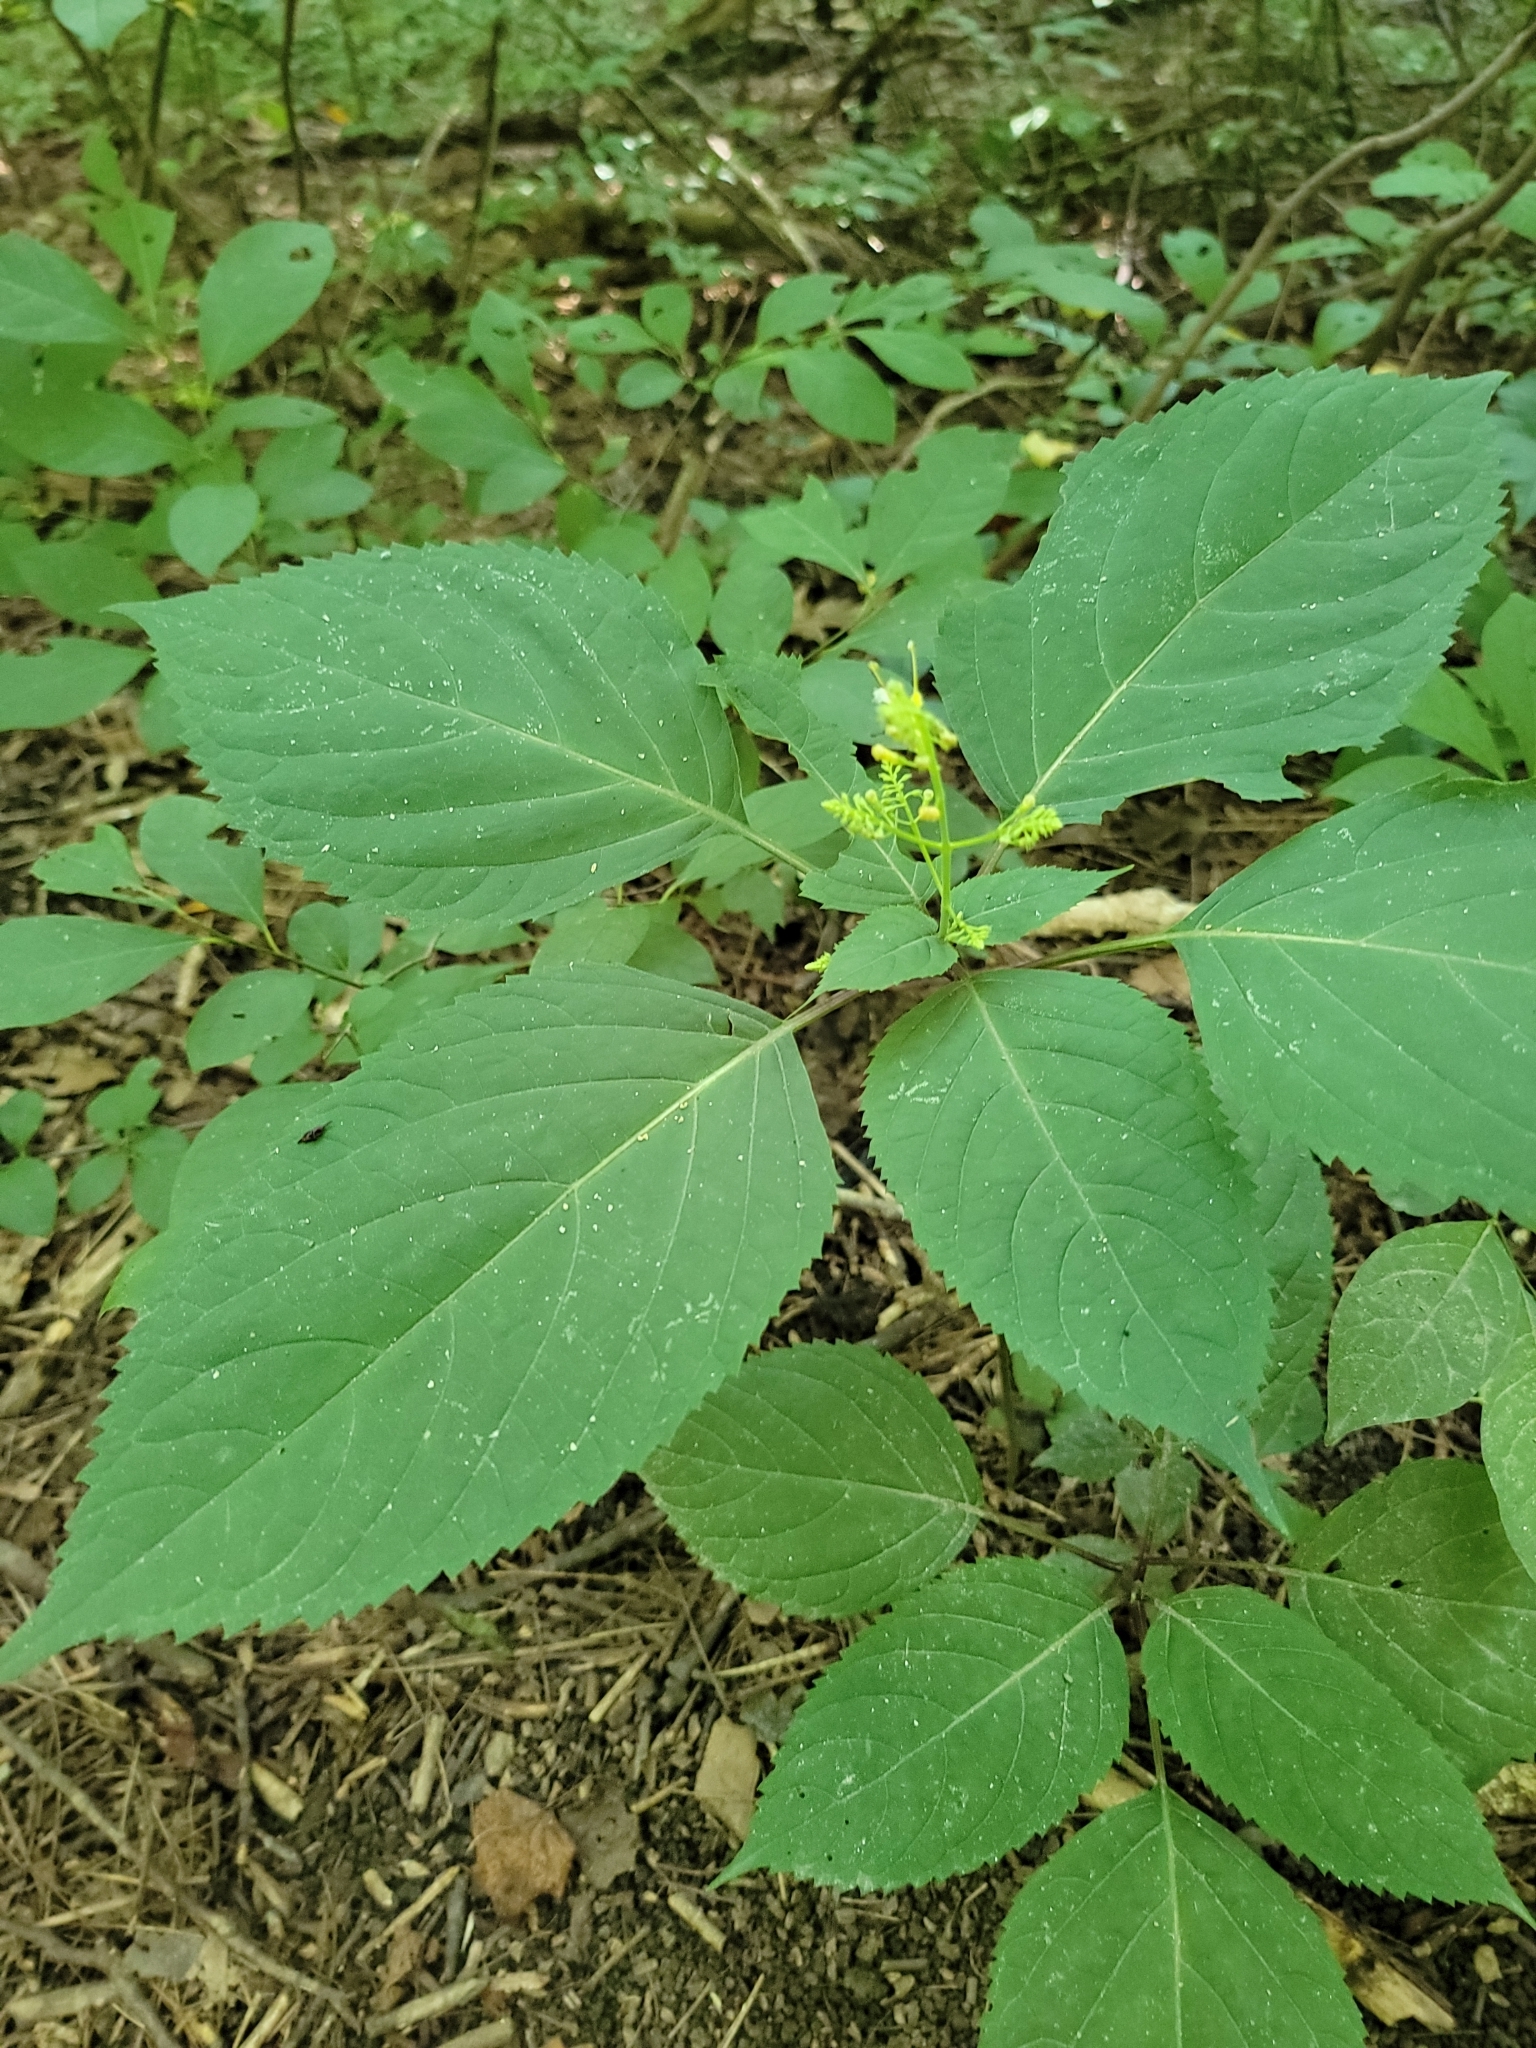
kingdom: Plantae
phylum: Tracheophyta
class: Magnoliopsida
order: Lamiales
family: Lamiaceae
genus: Collinsonia
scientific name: Collinsonia canadensis
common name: Northern horsebalm
